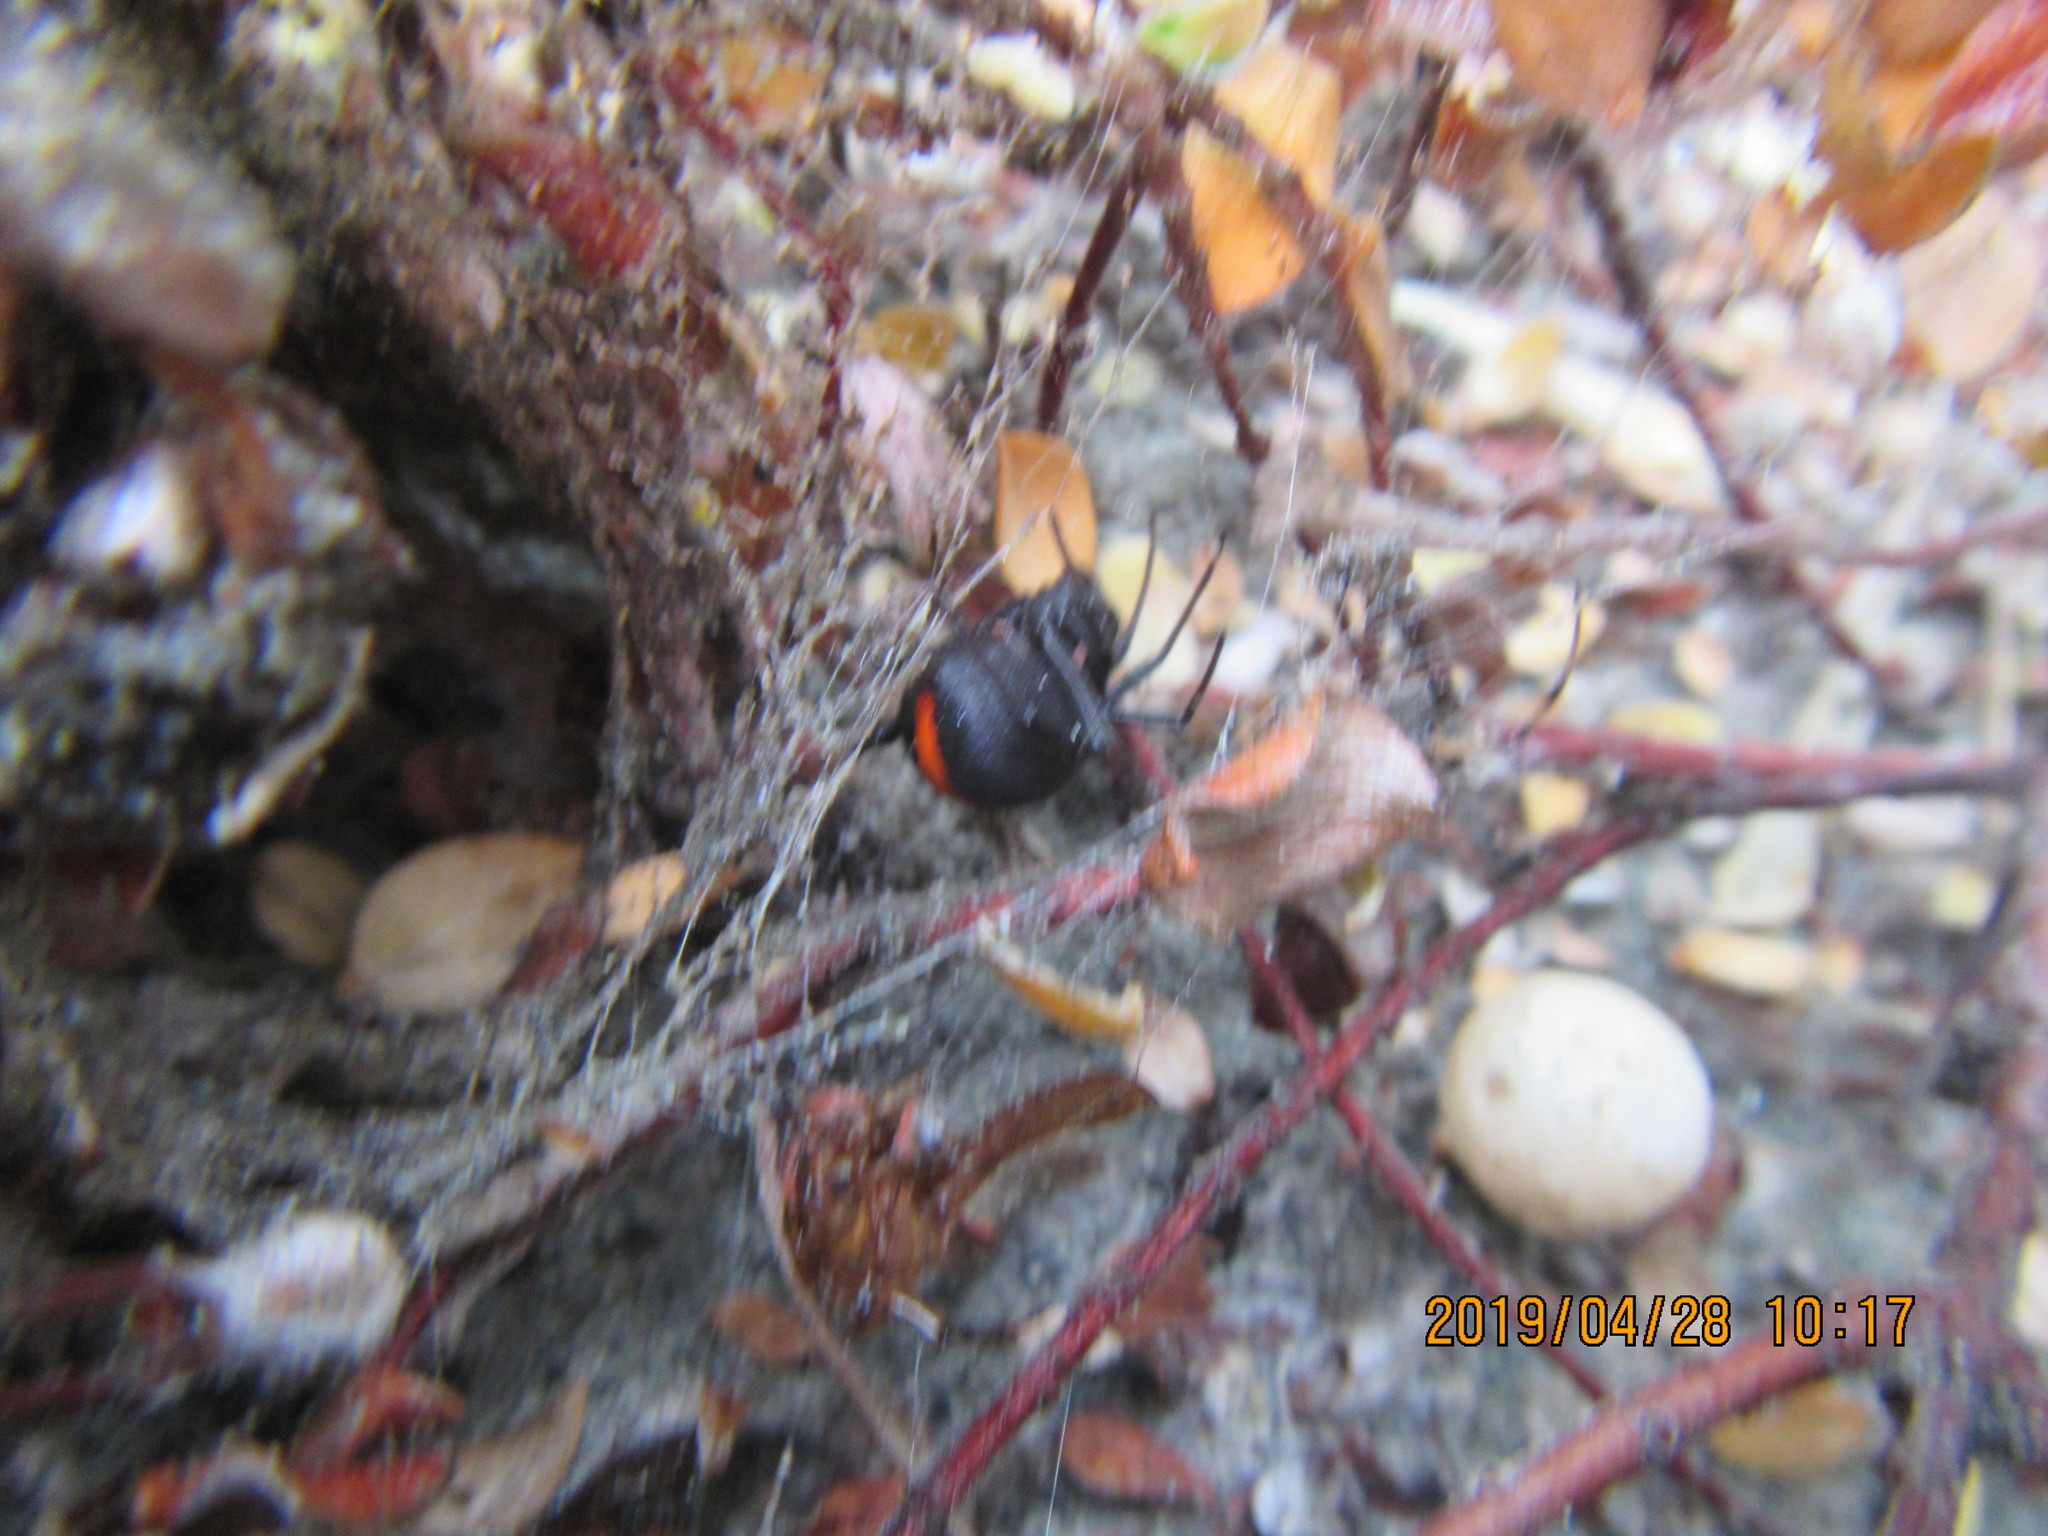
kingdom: Animalia
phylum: Arthropoda
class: Arachnida
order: Araneae
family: Theridiidae
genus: Latrodectus
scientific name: Latrodectus katipo
